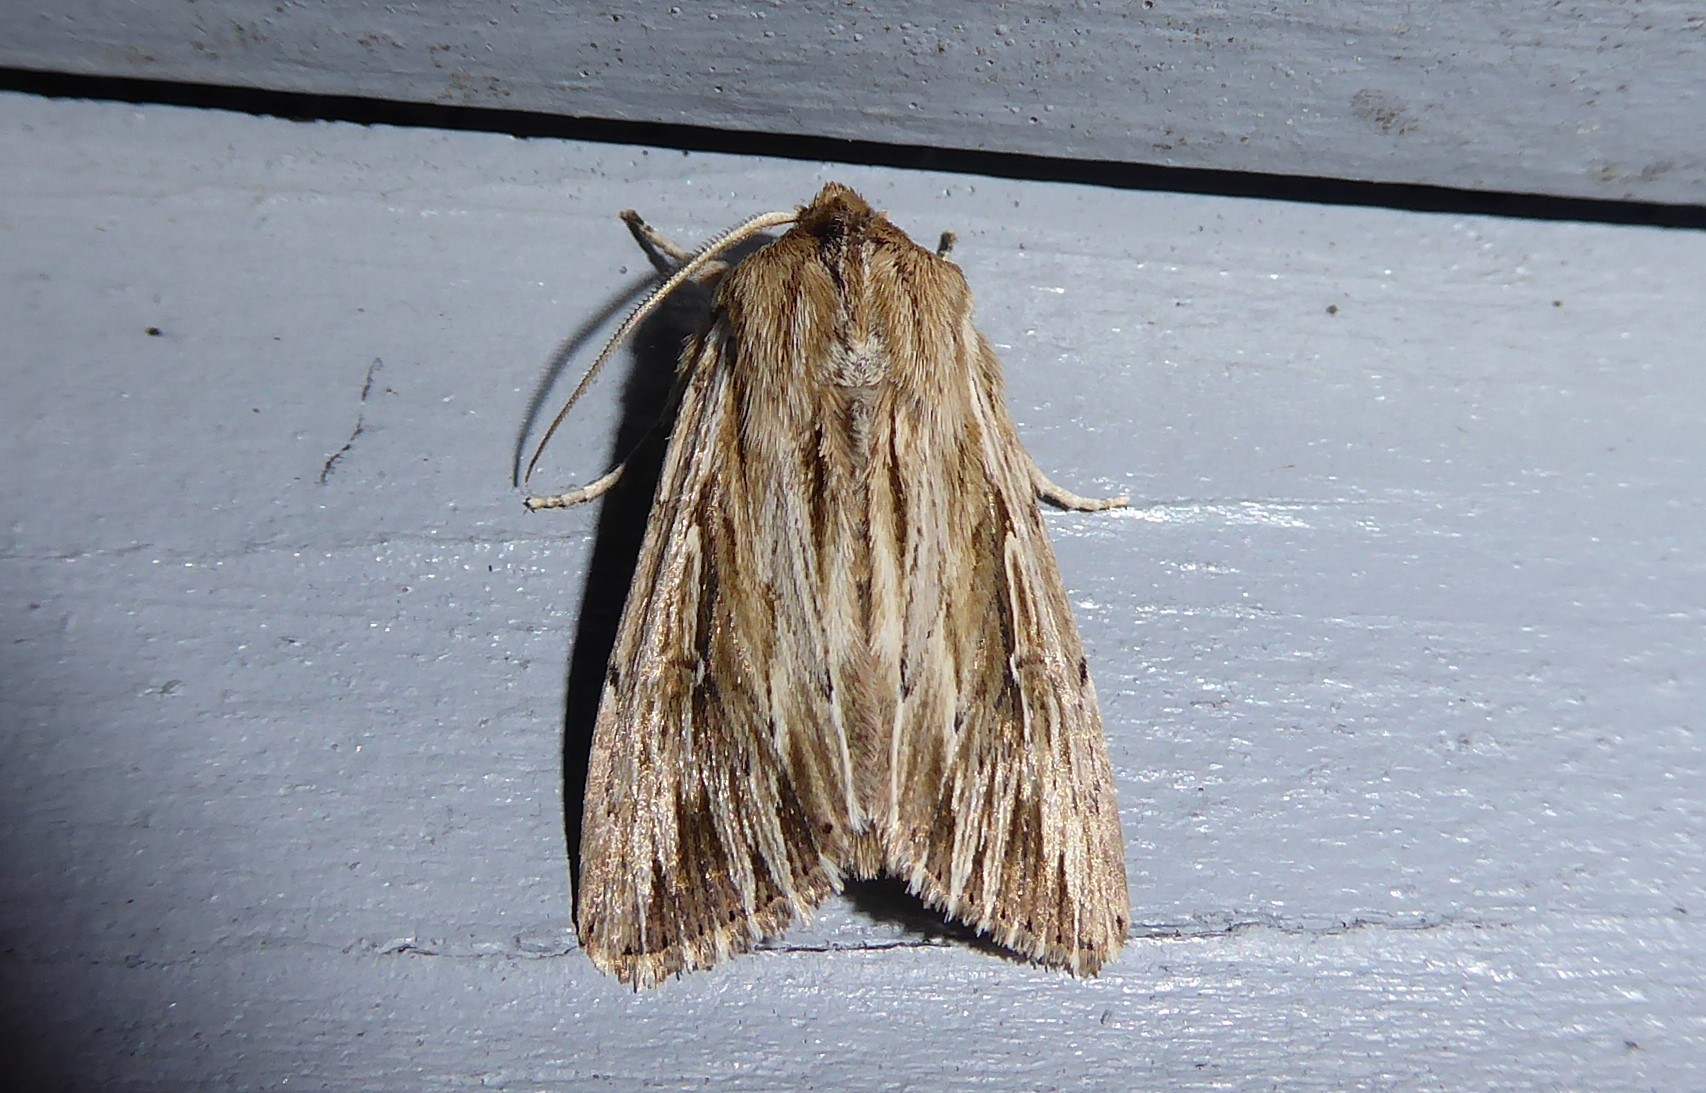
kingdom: Animalia
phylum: Arthropoda
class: Insecta
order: Lepidoptera
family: Noctuidae
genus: Persectania
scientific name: Persectania aversa
